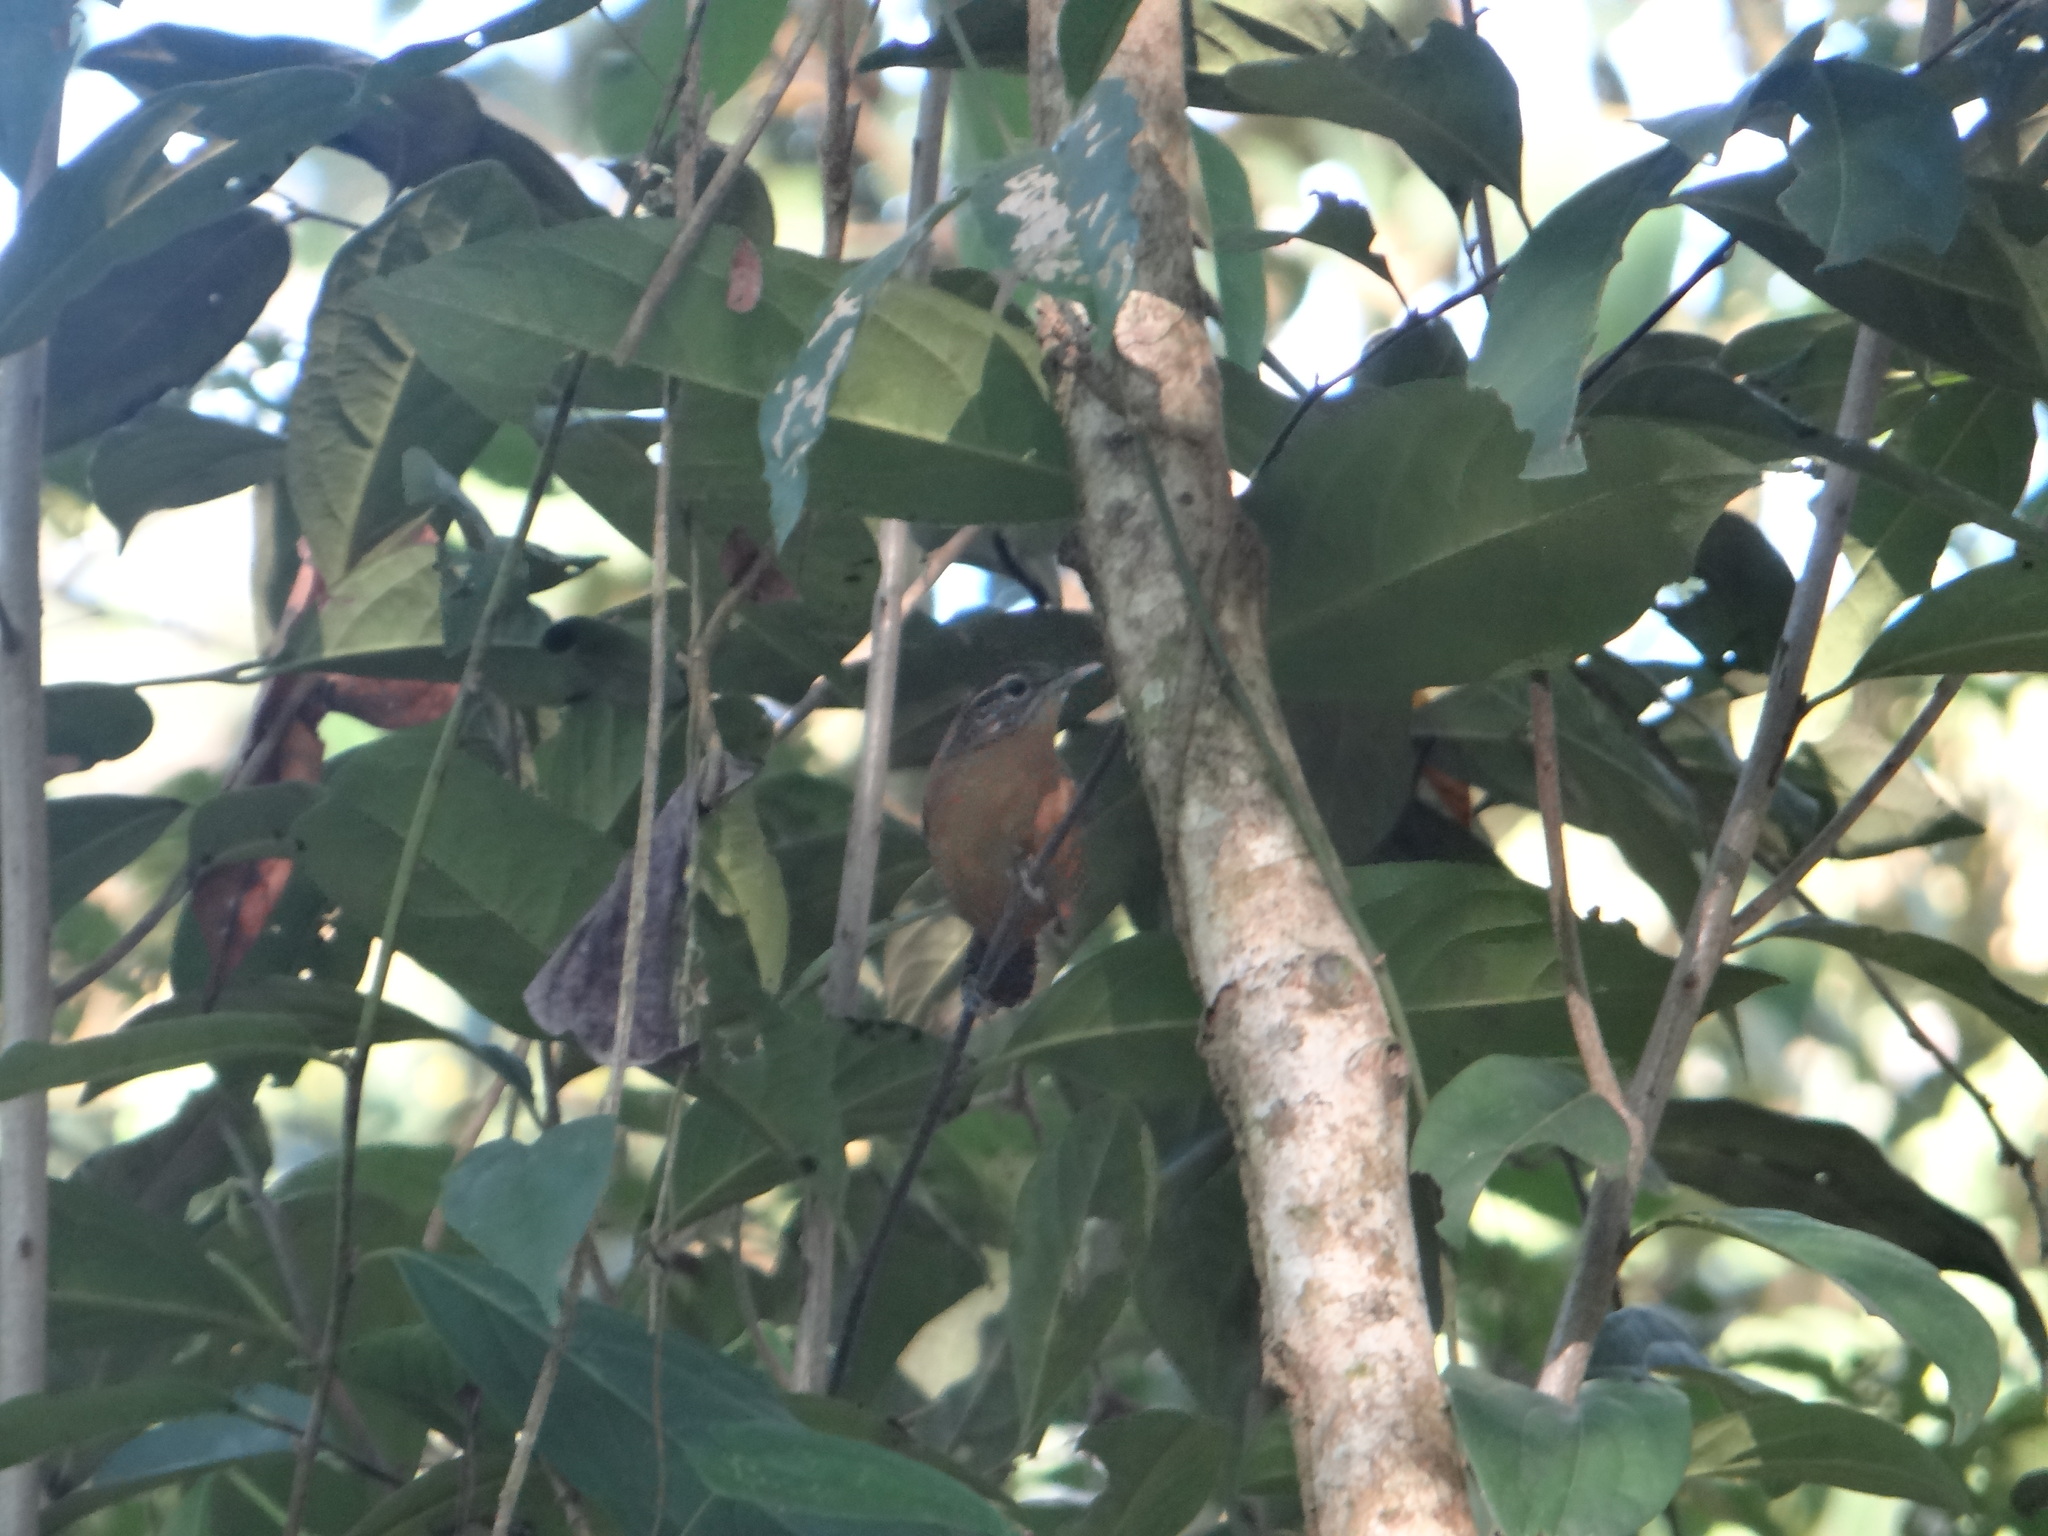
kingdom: Animalia
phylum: Chordata
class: Aves
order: Passeriformes
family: Troglodytidae
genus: Cantorchilus
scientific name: Cantorchilus guarayanus
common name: Fawn-breasted wren
